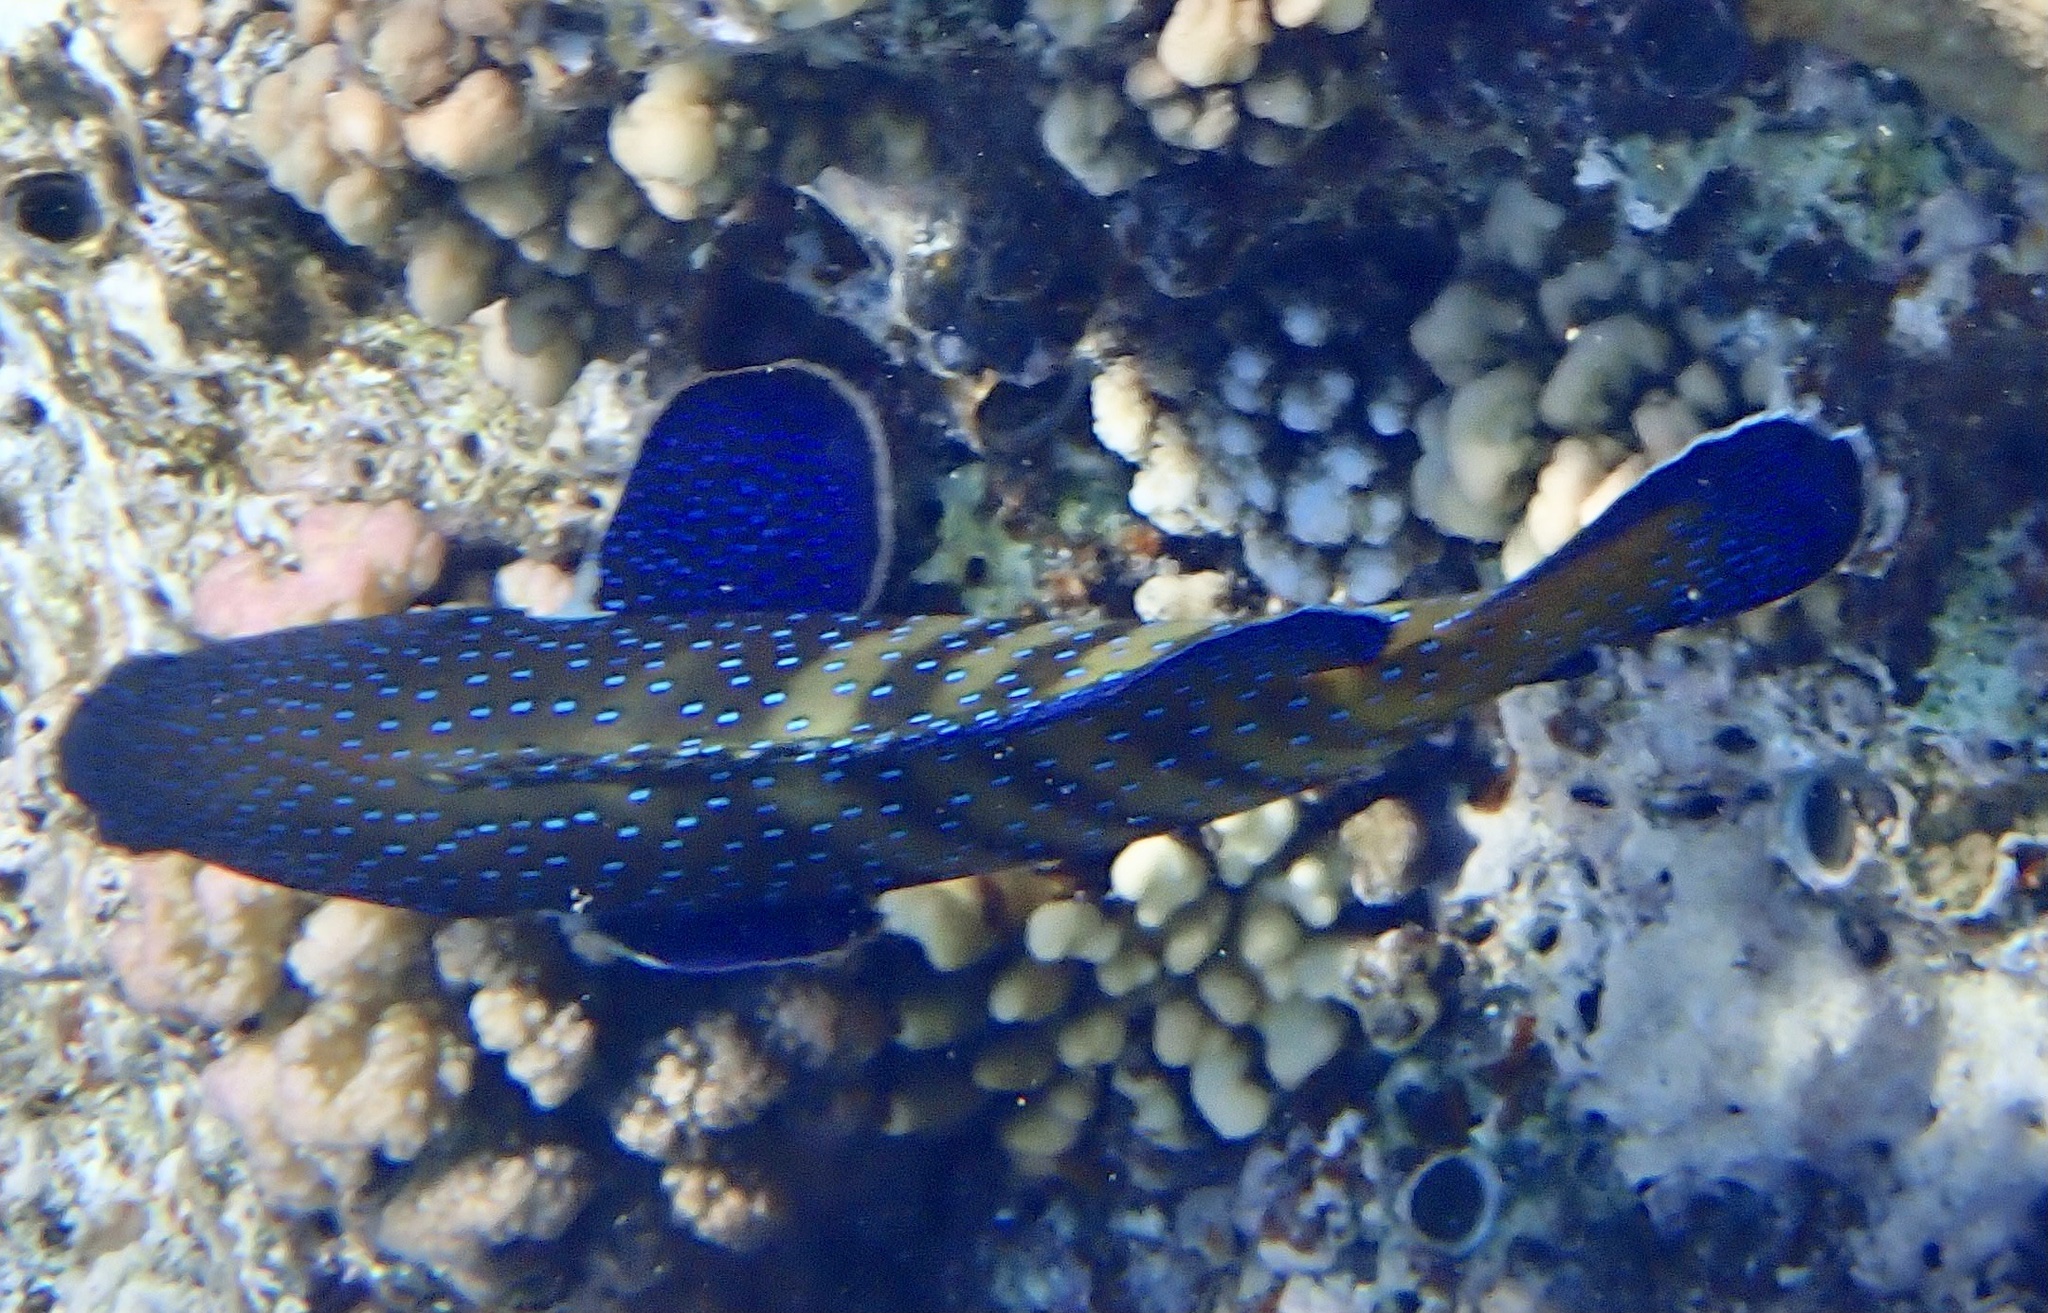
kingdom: Animalia
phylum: Chordata
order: Perciformes
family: Serranidae
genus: Cephalopholis
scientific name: Cephalopholis argus
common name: Peacock grouper
